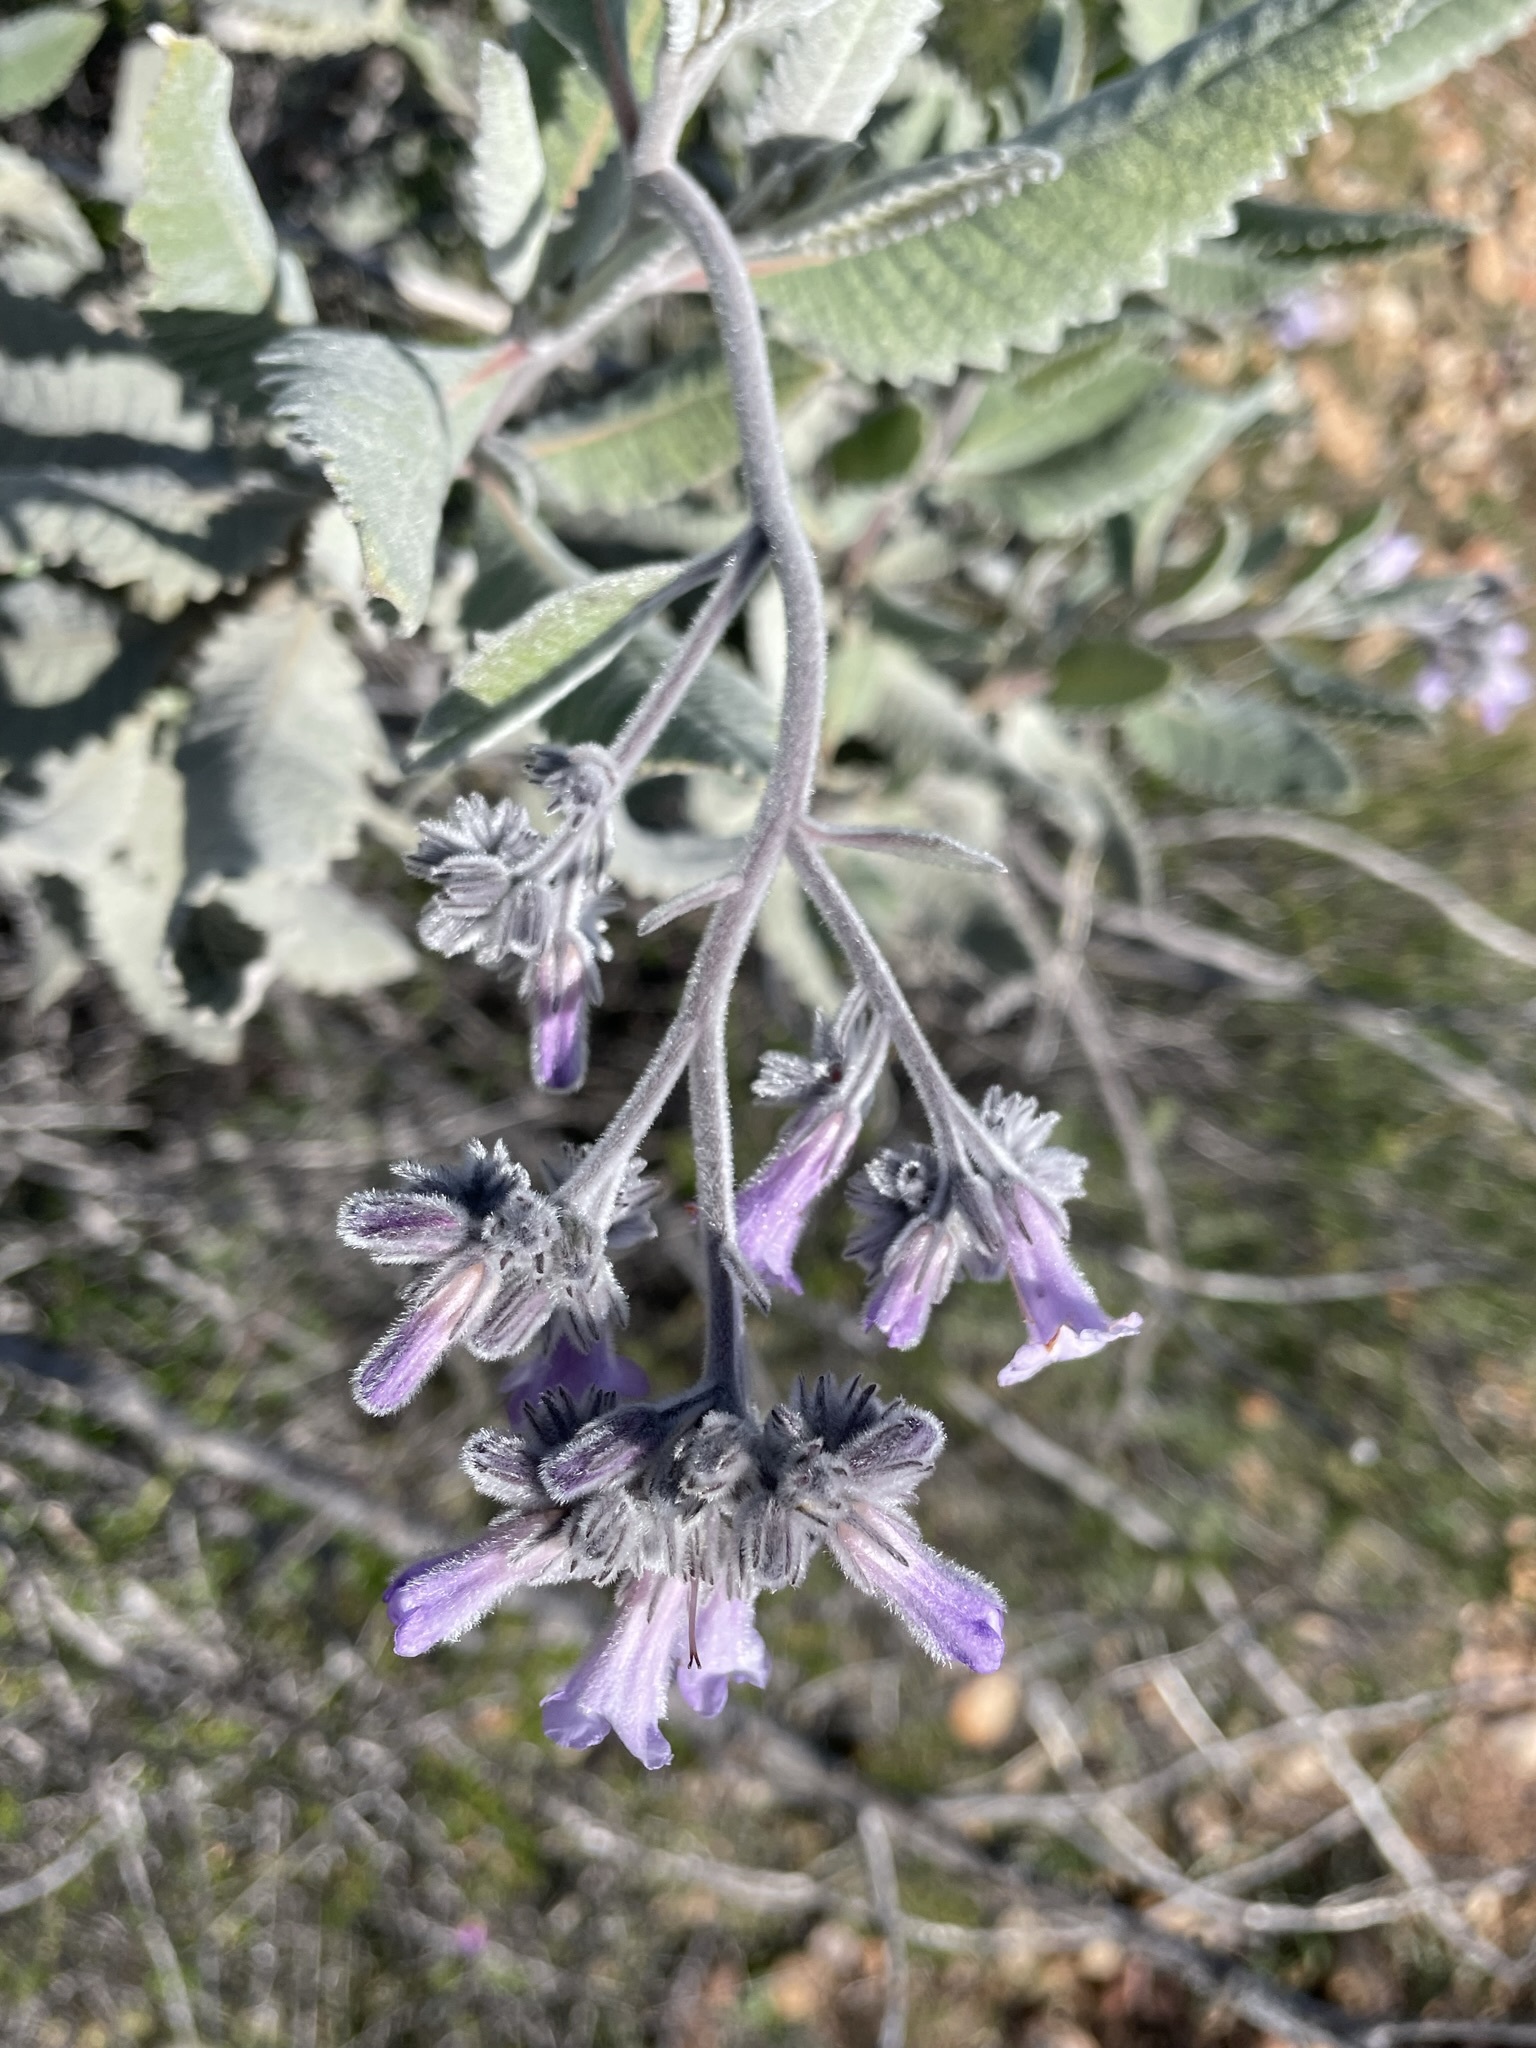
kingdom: Plantae
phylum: Tracheophyta
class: Magnoliopsida
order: Boraginales
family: Namaceae
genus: Eriodictyon
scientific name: Eriodictyon crassifolium
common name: Thick-leaf yerba-santa
